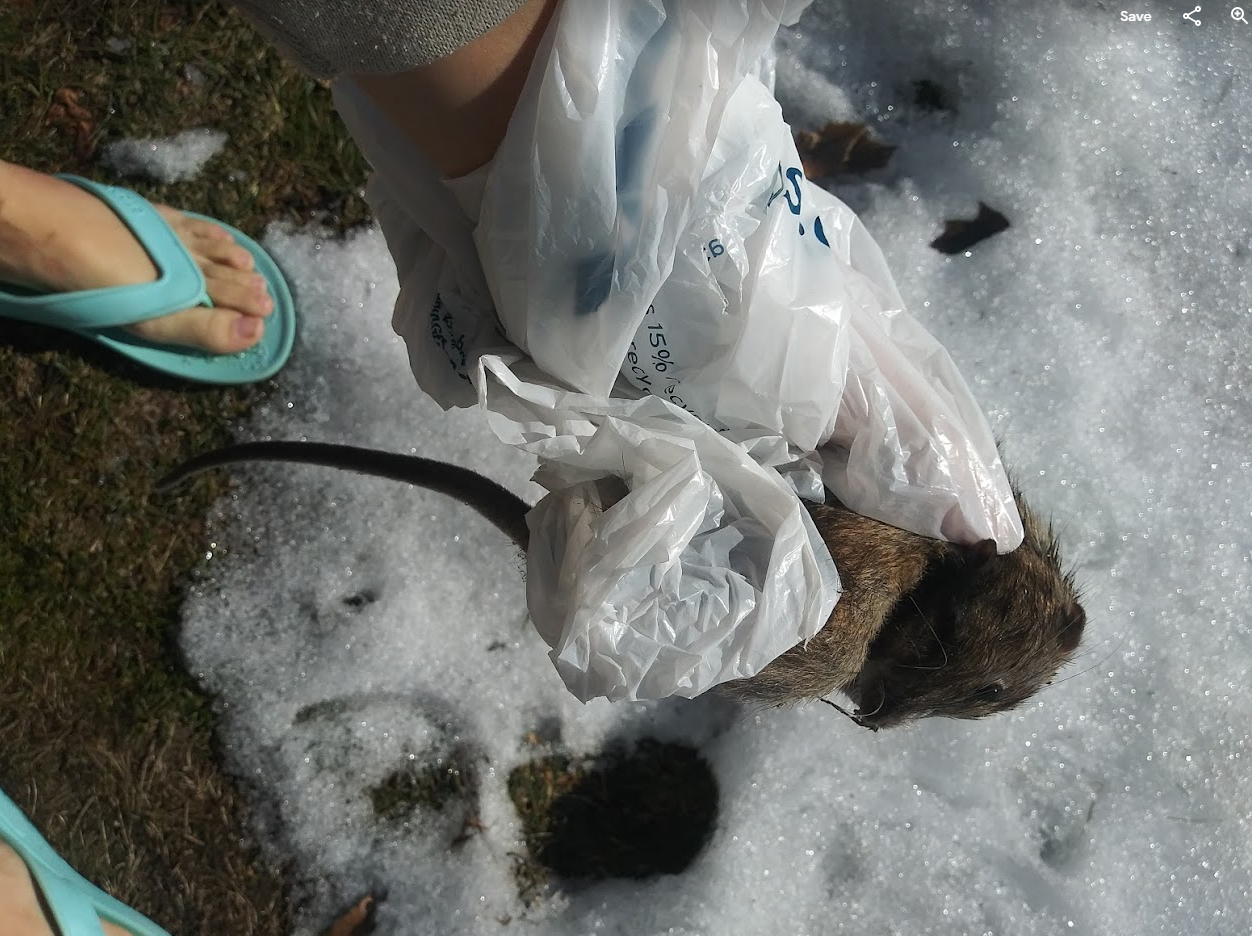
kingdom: Animalia
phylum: Chordata
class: Mammalia
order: Rodentia
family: Muridae
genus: Rattus
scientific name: Rattus norvegicus
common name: Brown rat
